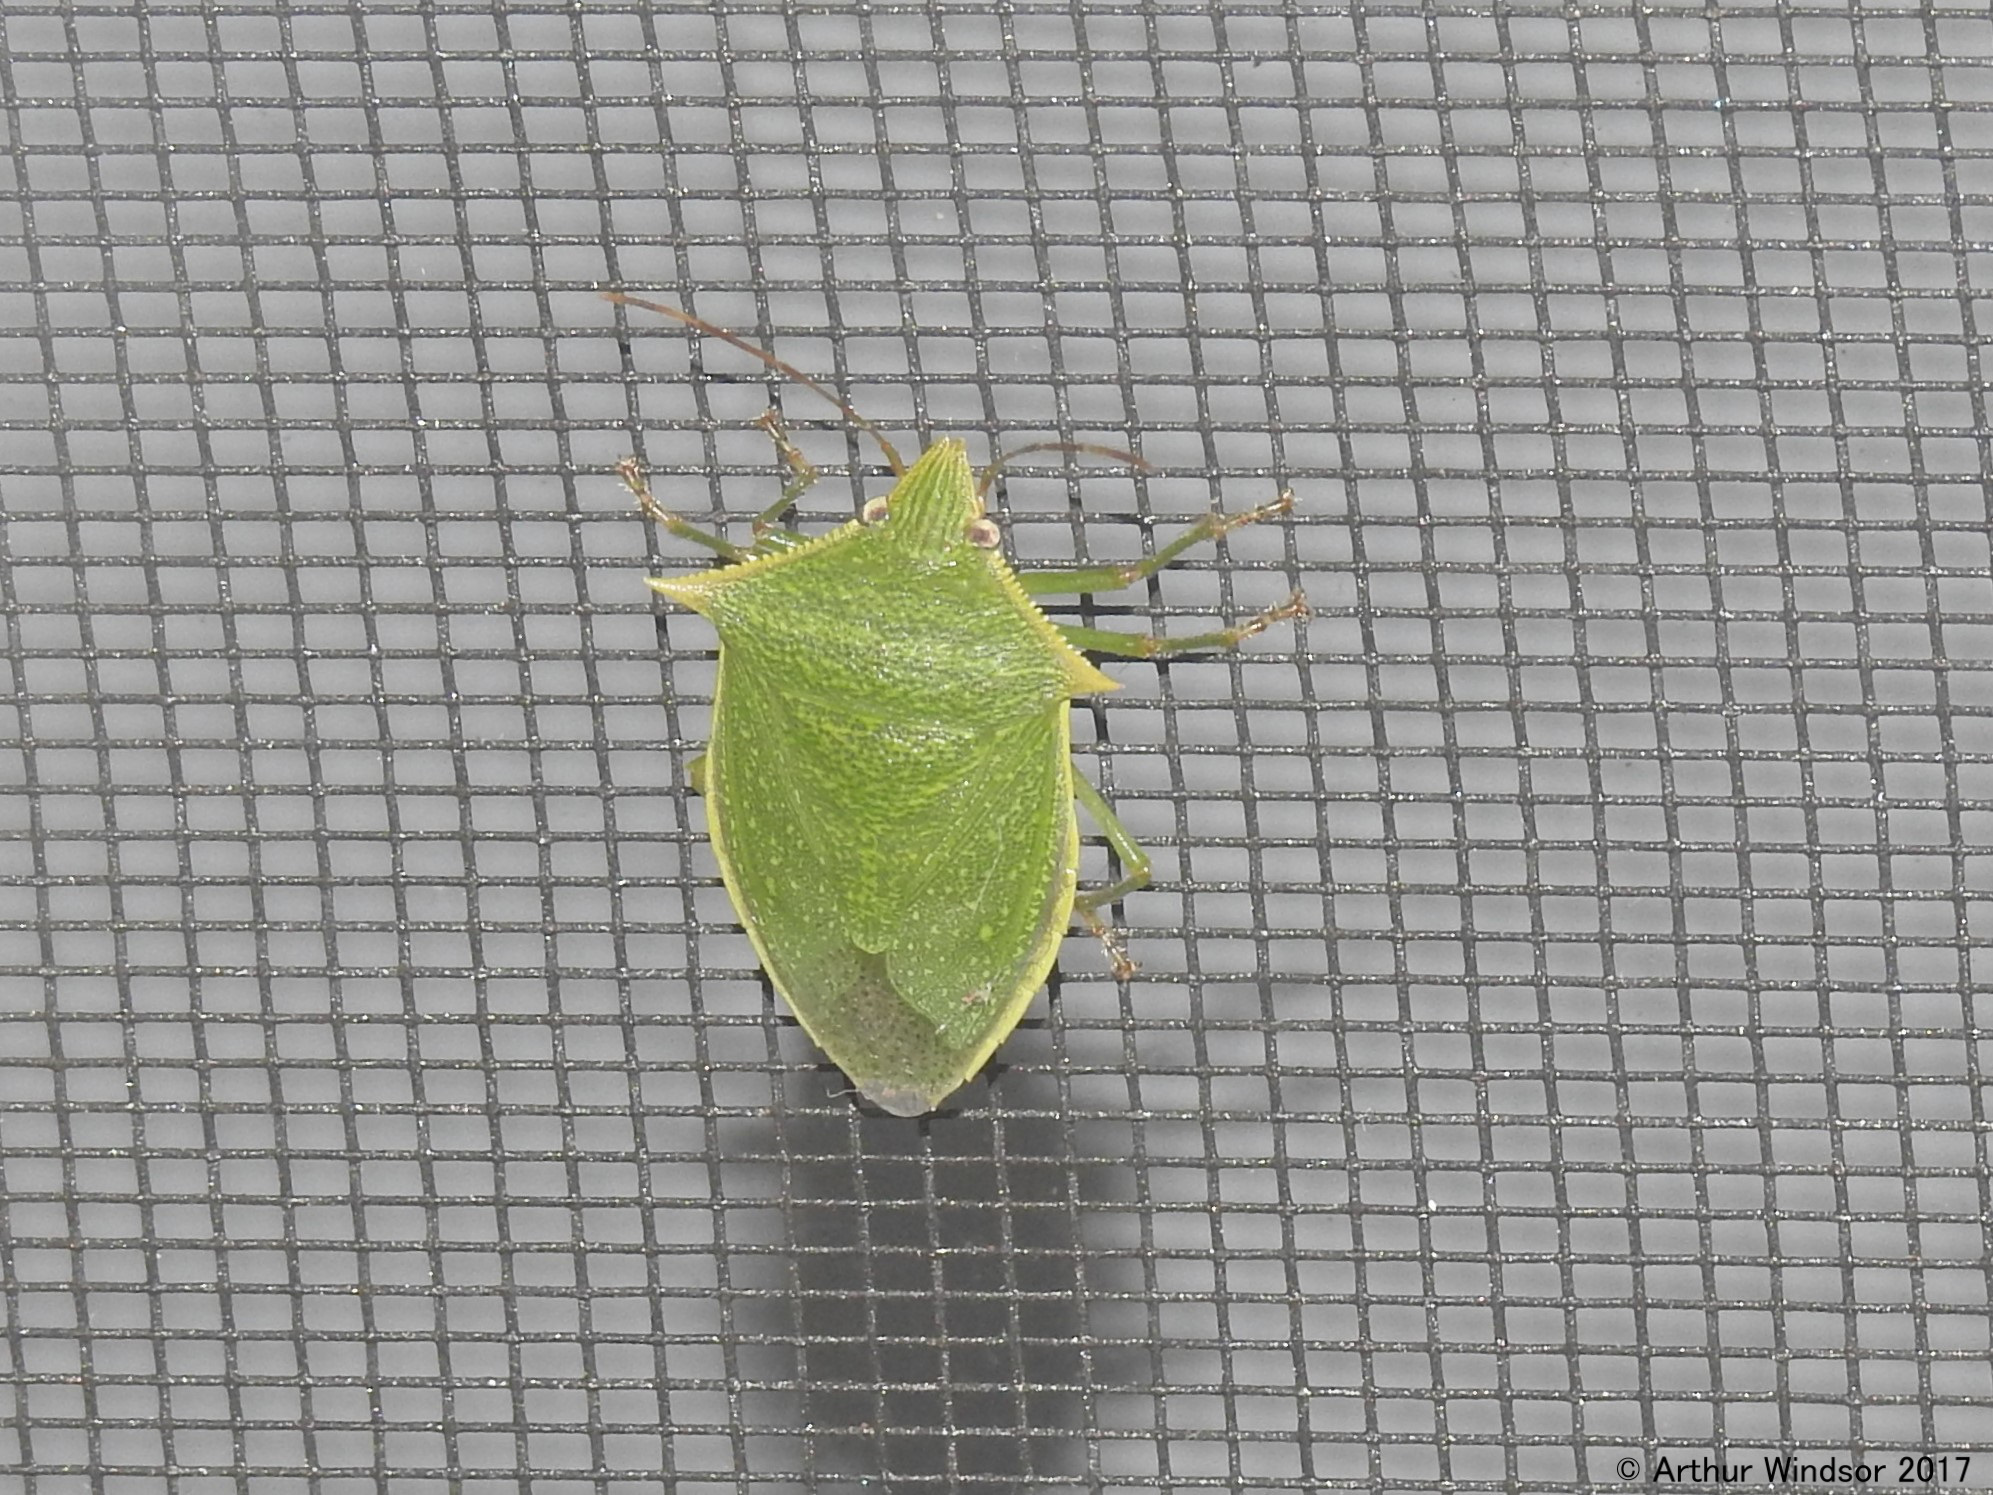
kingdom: Animalia
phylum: Arthropoda
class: Insecta
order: Hemiptera
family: Pentatomidae
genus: Loxa
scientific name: Loxa viridis
